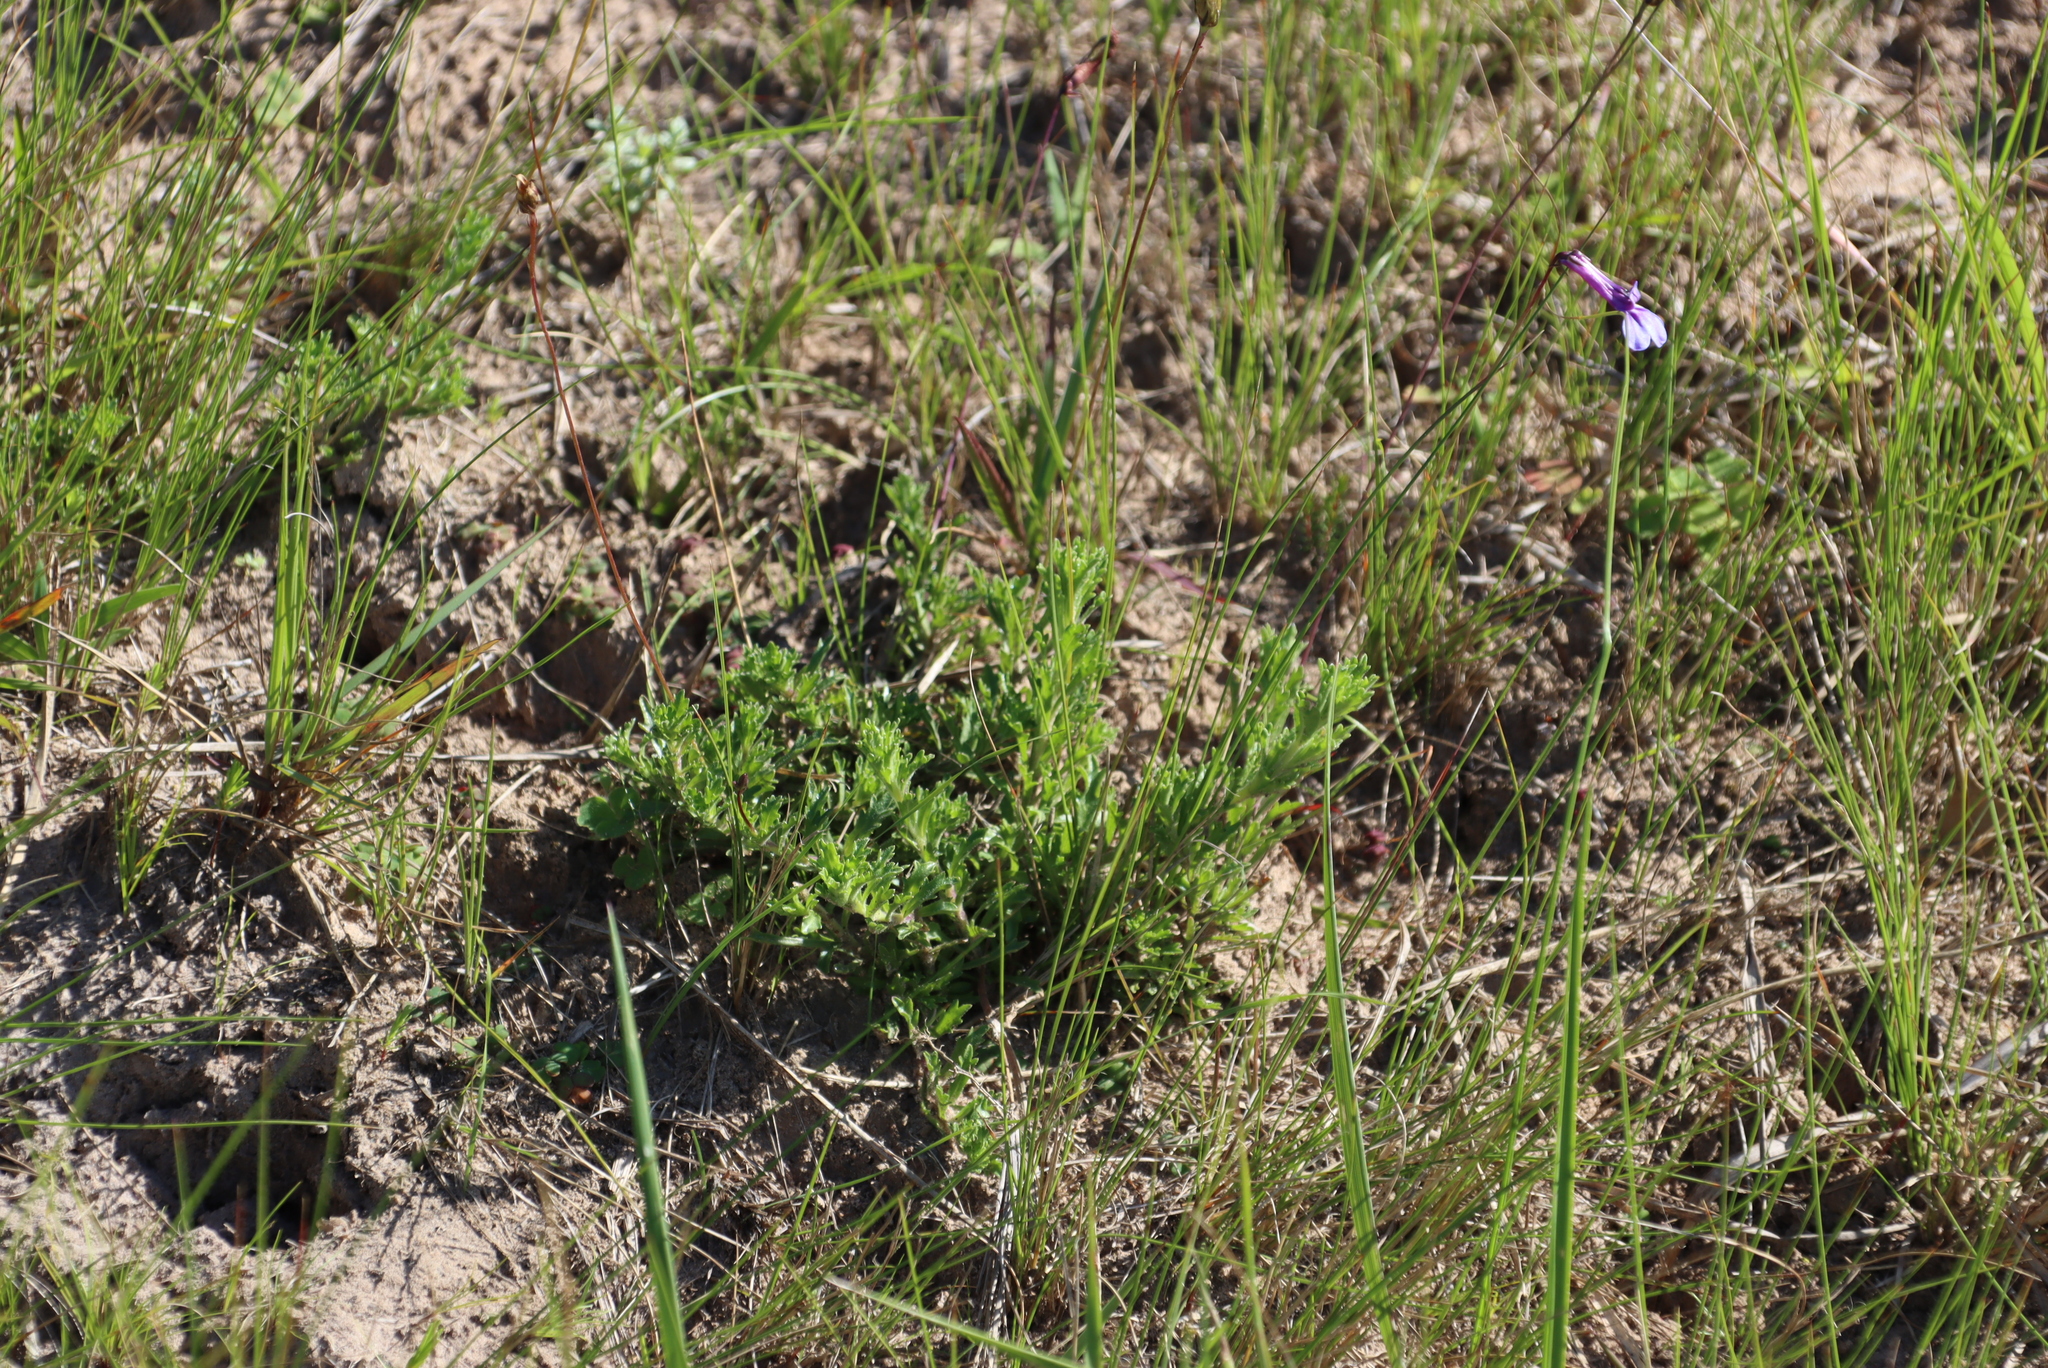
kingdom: Plantae
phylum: Tracheophyta
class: Magnoliopsida
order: Asterales
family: Campanulaceae
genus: Lobelia
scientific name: Lobelia coronopifolia
